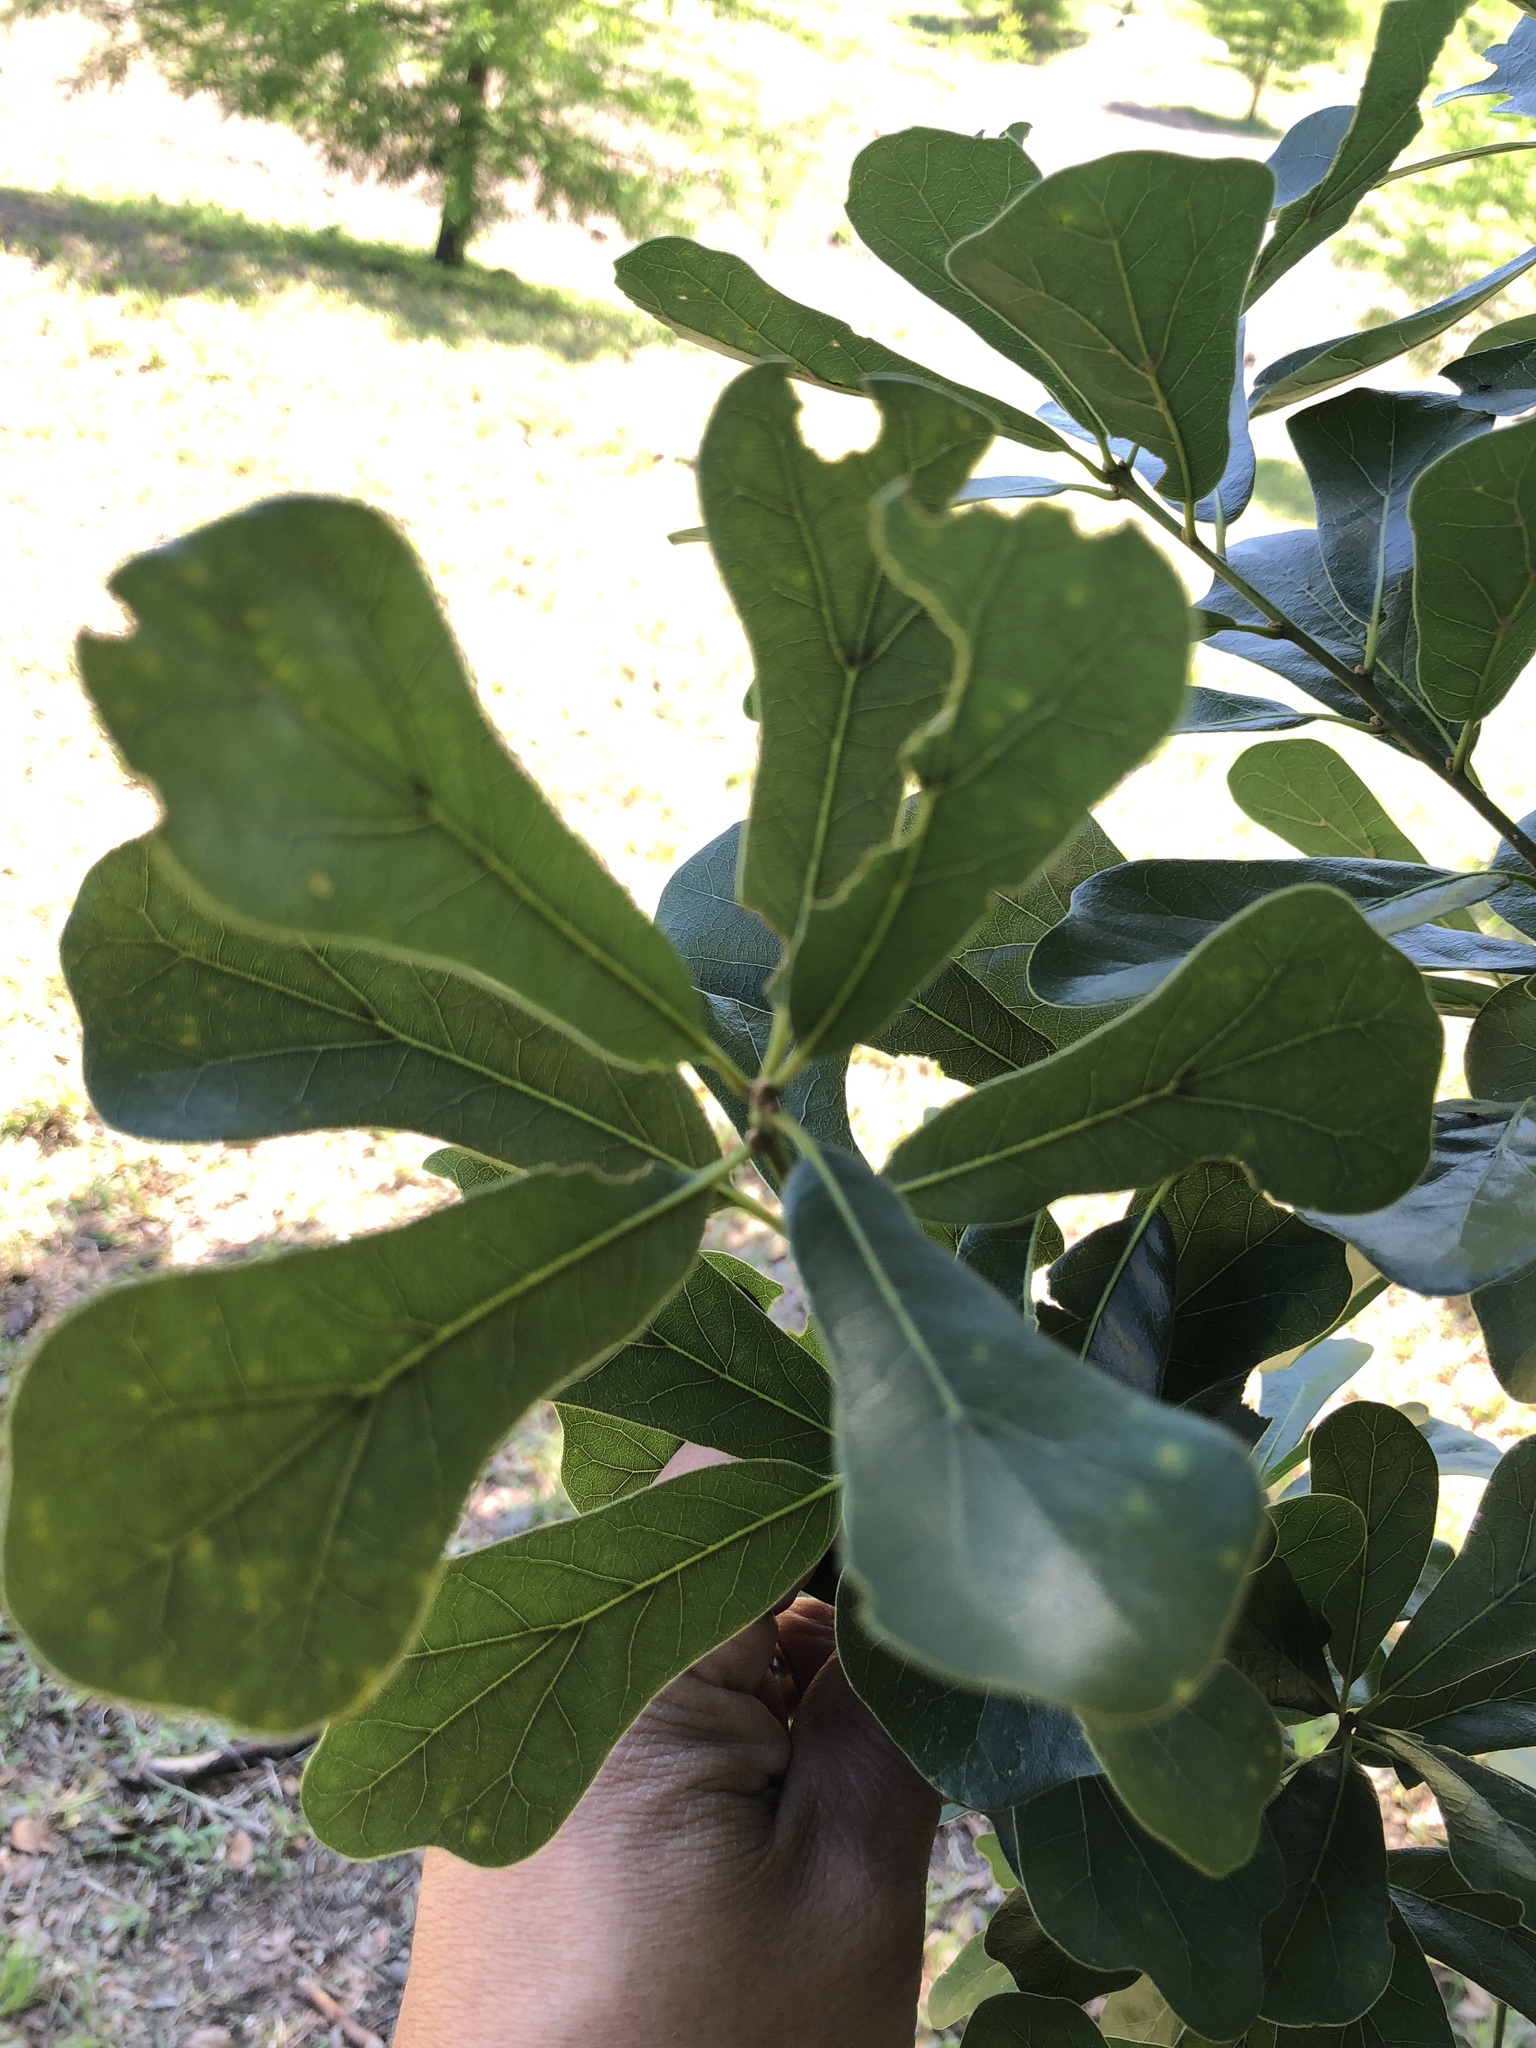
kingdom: Plantae
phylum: Tracheophyta
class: Magnoliopsida
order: Fagales
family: Fagaceae
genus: Quercus
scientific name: Quercus nigra
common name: Water oak
